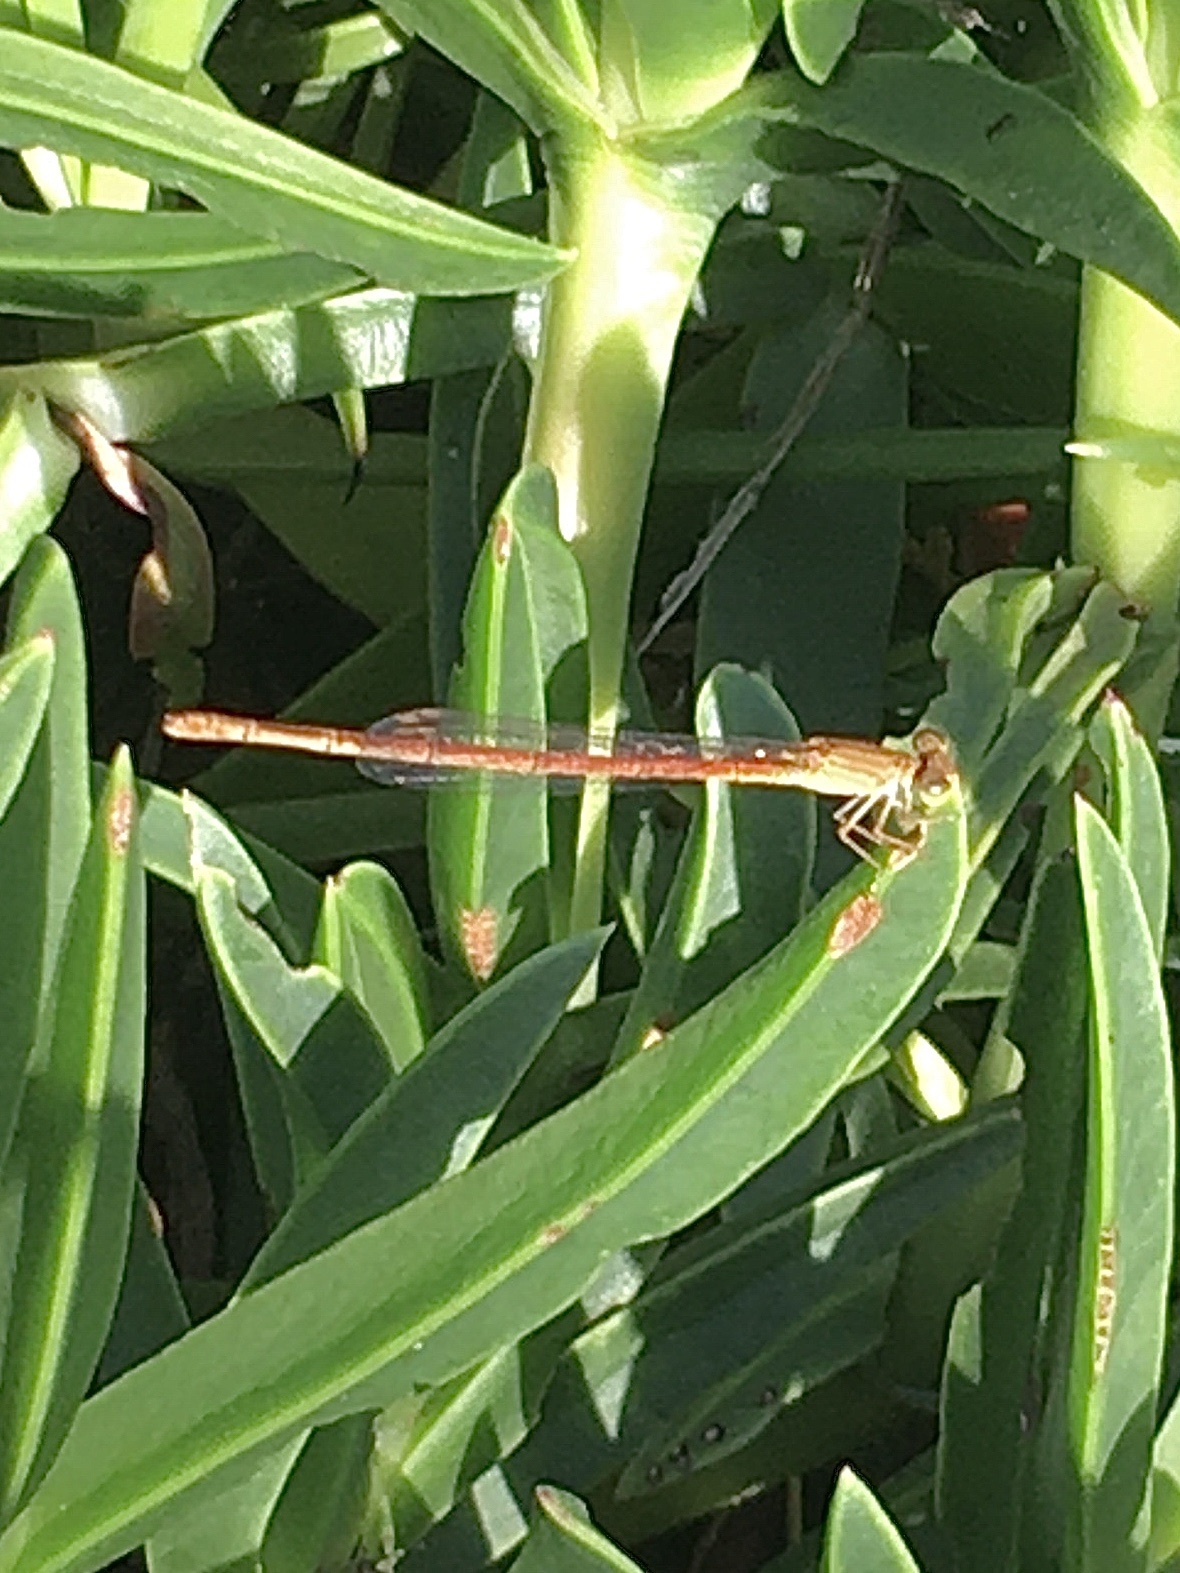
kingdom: Animalia
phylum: Arthropoda
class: Insecta
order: Odonata
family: Coenagrionidae
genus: Ceriagrion
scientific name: Ceriagrion glabrum
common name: Common pond damsel
